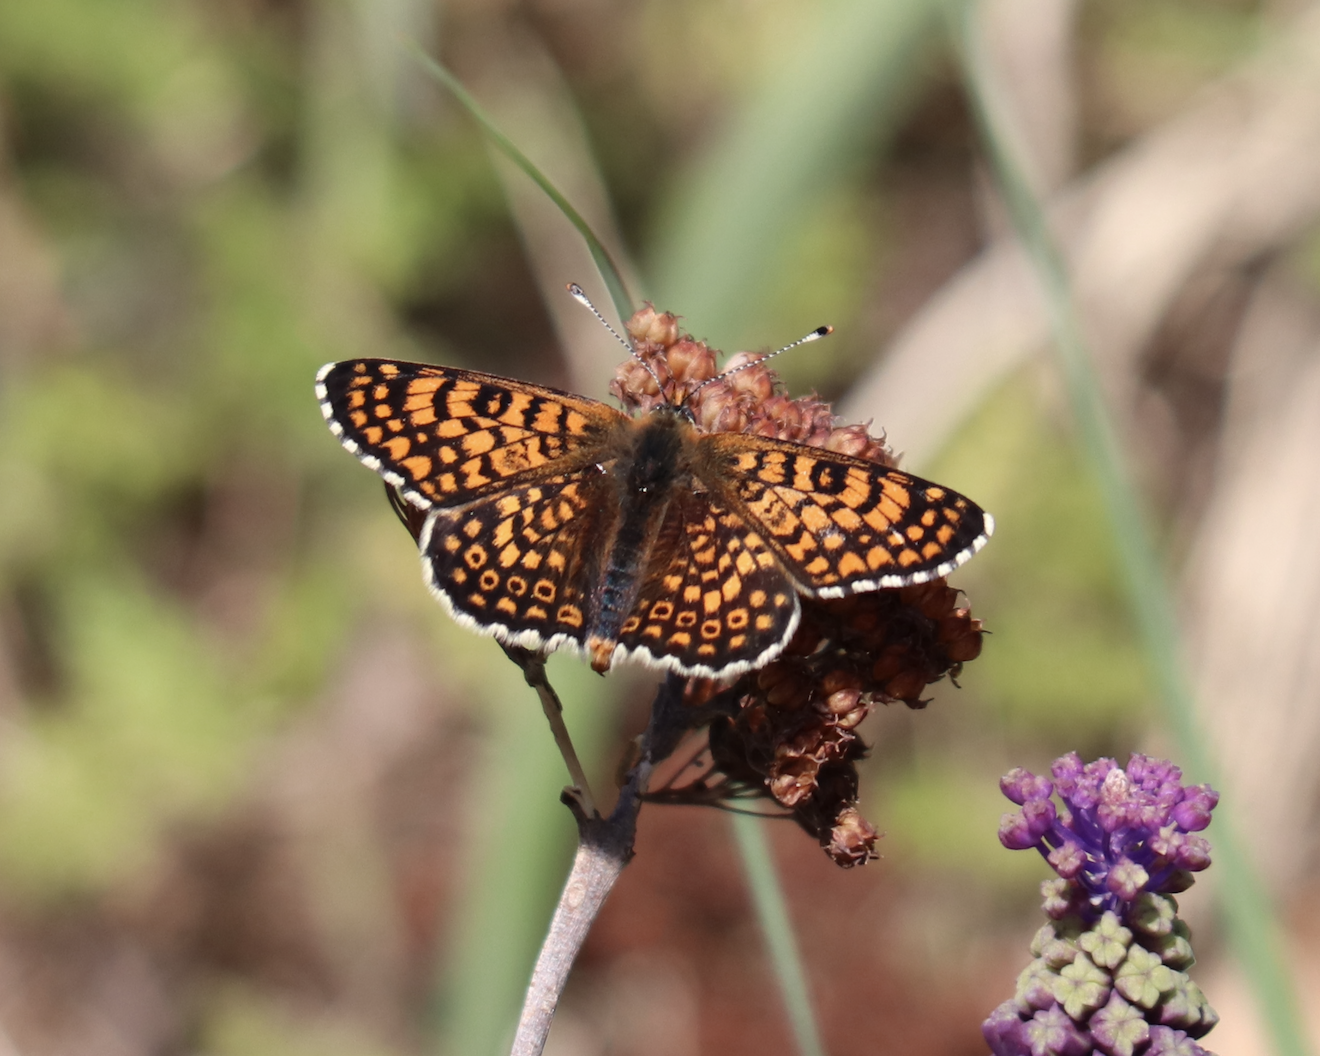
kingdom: Animalia
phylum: Arthropoda
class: Insecta
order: Lepidoptera
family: Nymphalidae
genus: Melitaea
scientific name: Melitaea cinxia
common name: Glanville fritillary
